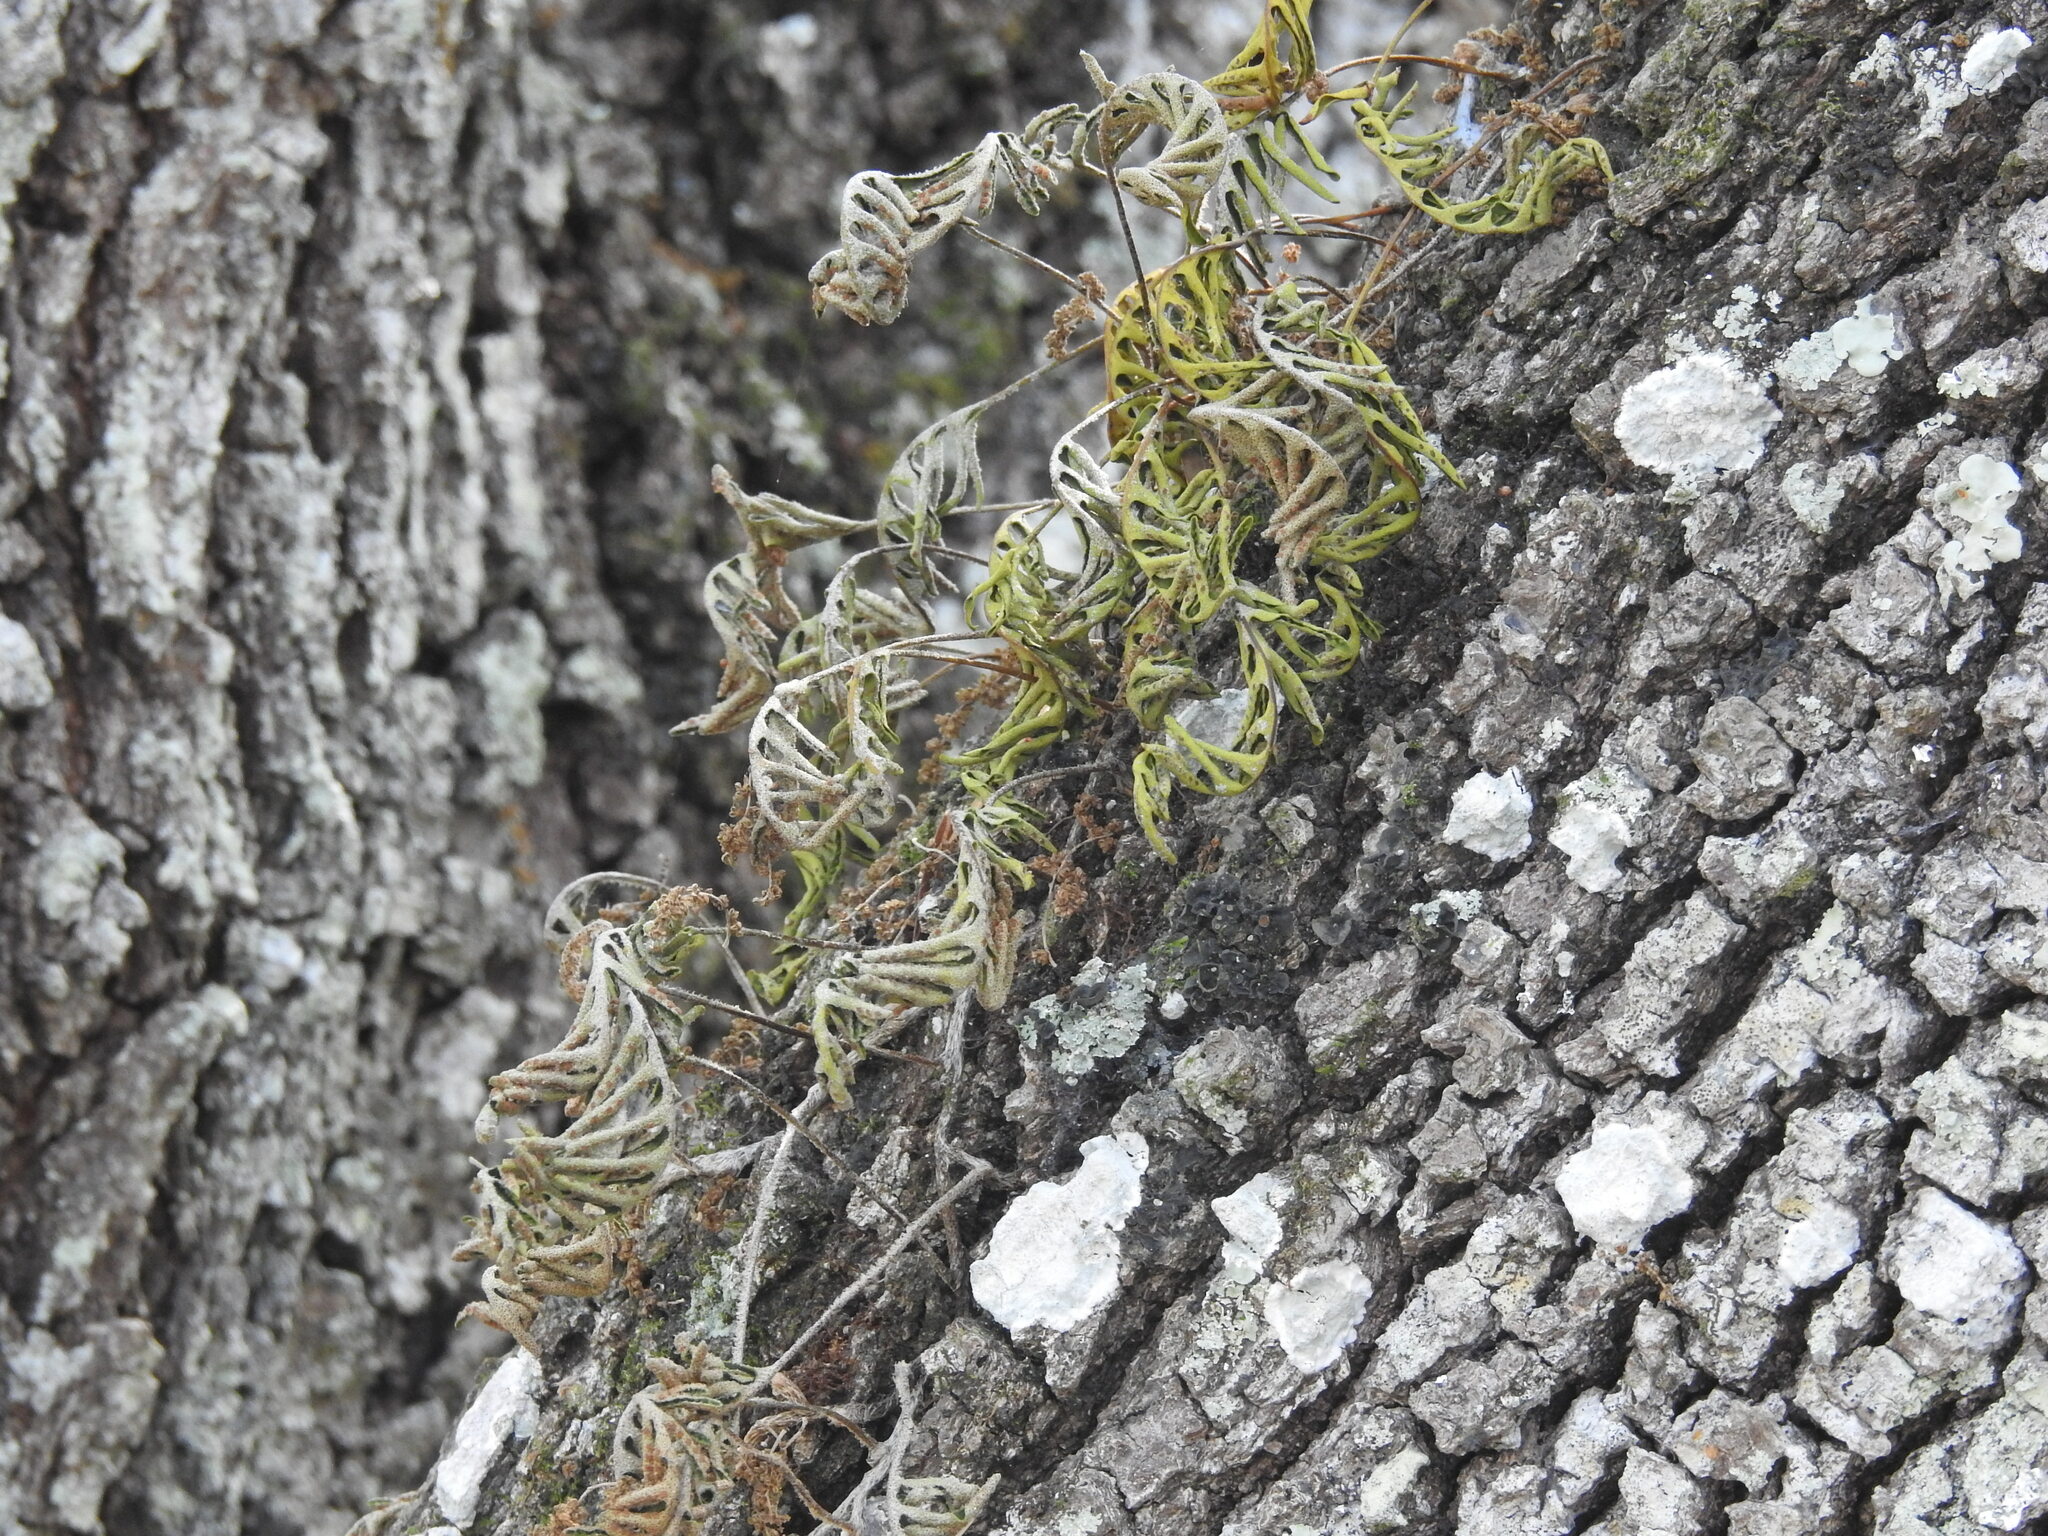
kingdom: Plantae
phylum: Tracheophyta
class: Polypodiopsida
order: Polypodiales
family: Polypodiaceae
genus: Pleopeltis
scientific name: Pleopeltis michauxiana
